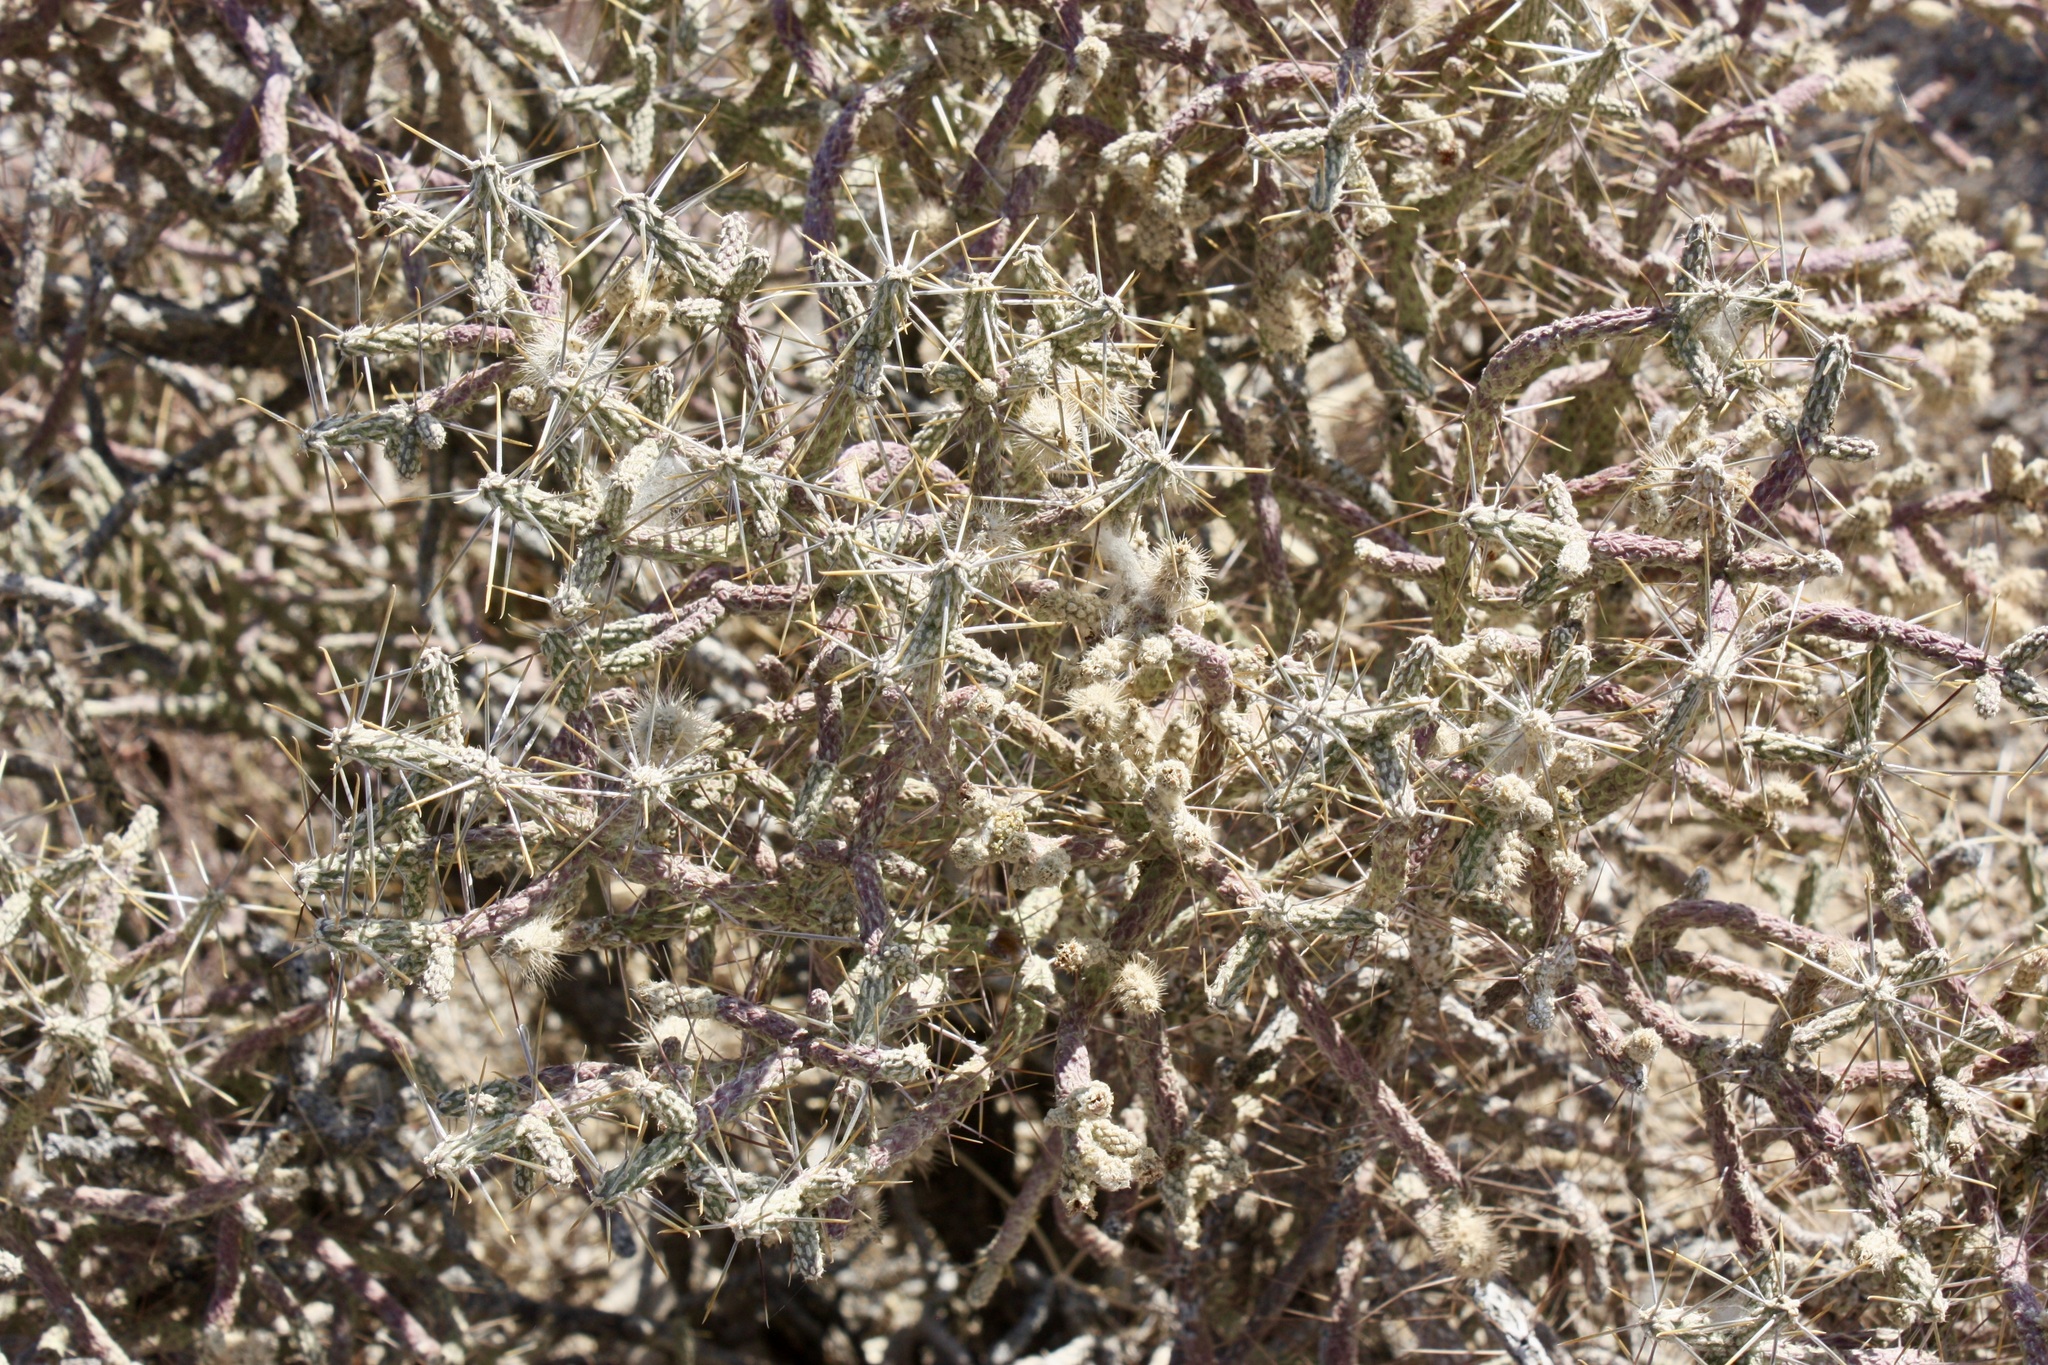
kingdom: Plantae
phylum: Tracheophyta
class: Magnoliopsida
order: Caryophyllales
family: Cactaceae
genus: Cylindropuntia
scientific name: Cylindropuntia ramosissima
